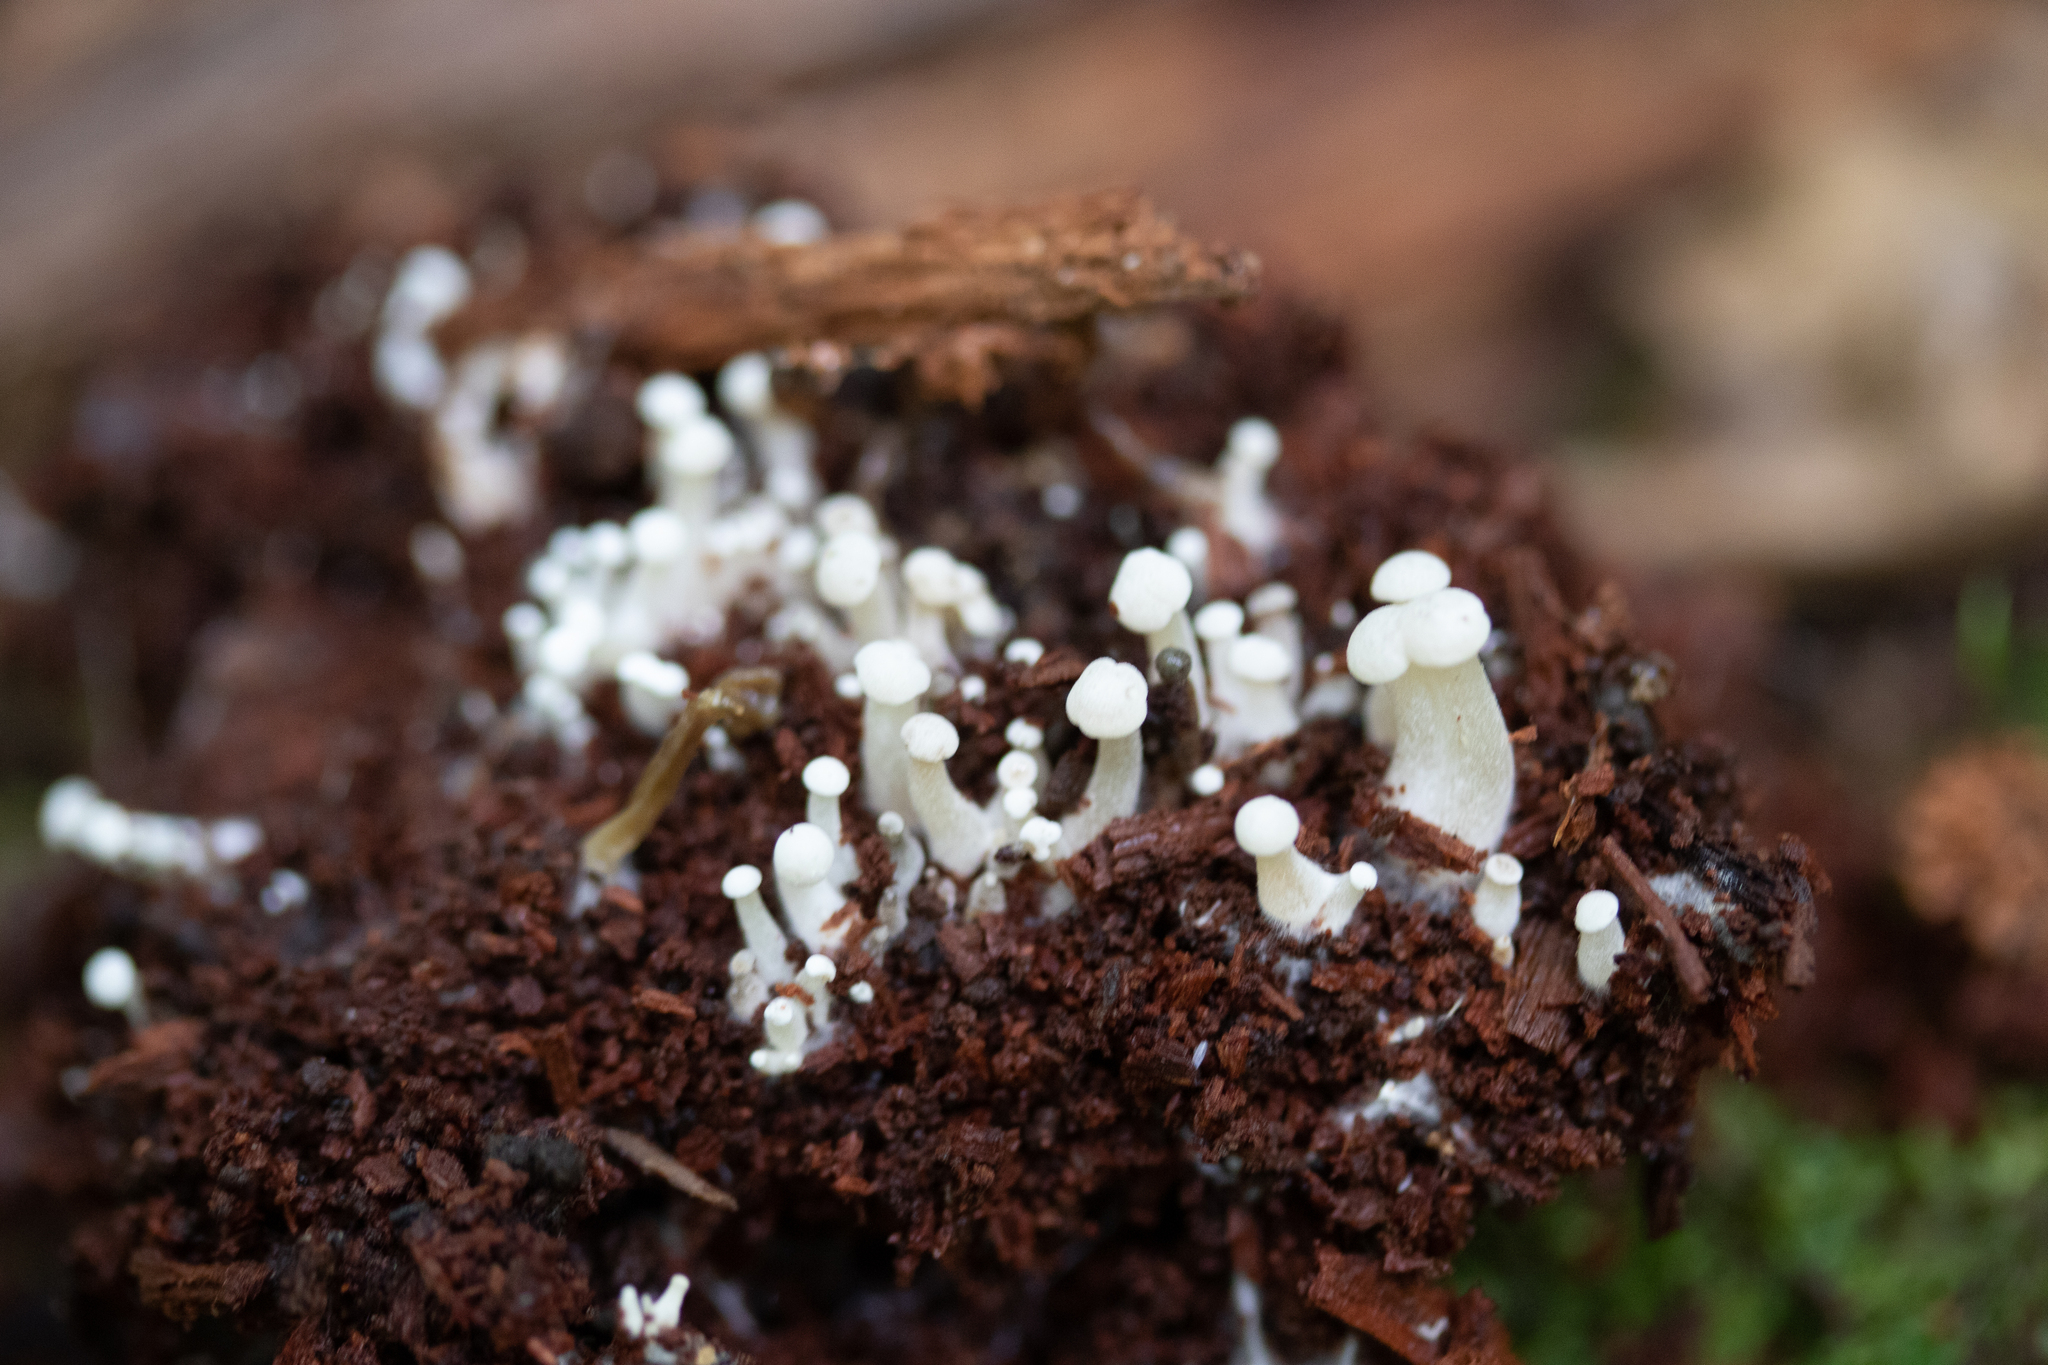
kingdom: Fungi
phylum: Ascomycota
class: Leotiomycetes
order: Helotiales
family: Tricladiaceae
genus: Cudoniella
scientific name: Cudoniella acicularis
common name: Oak pin
